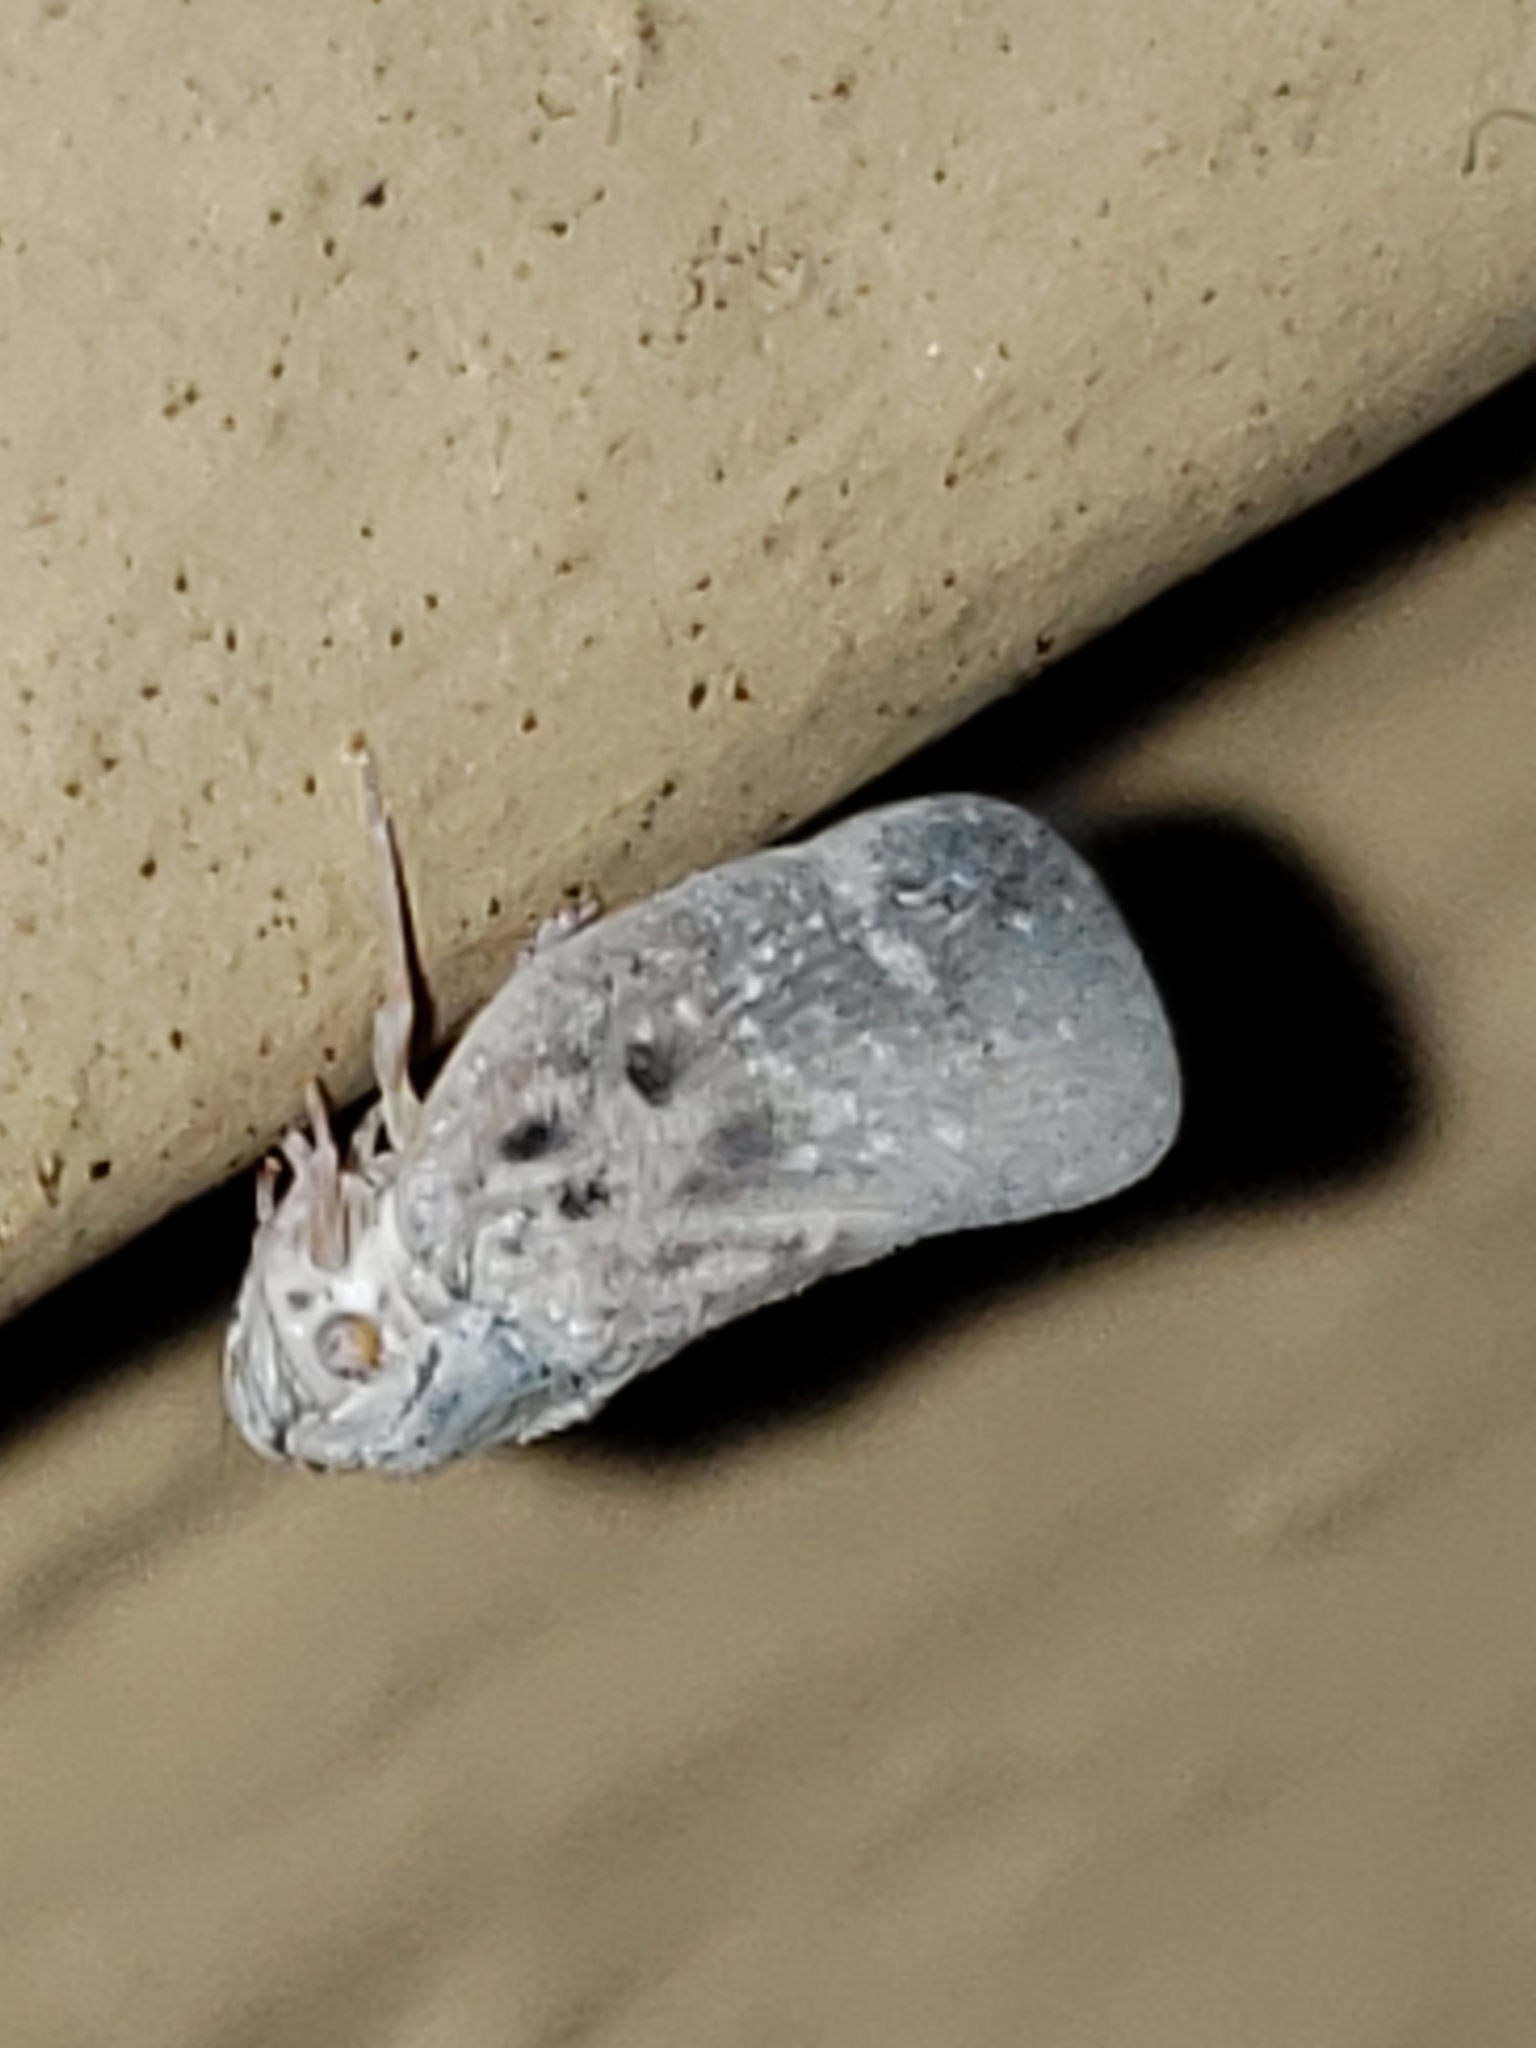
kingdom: Animalia
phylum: Arthropoda
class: Insecta
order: Hemiptera
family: Flatidae
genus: Metcalfa
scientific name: Metcalfa pruinosa
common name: Citrus flatid planthopper
